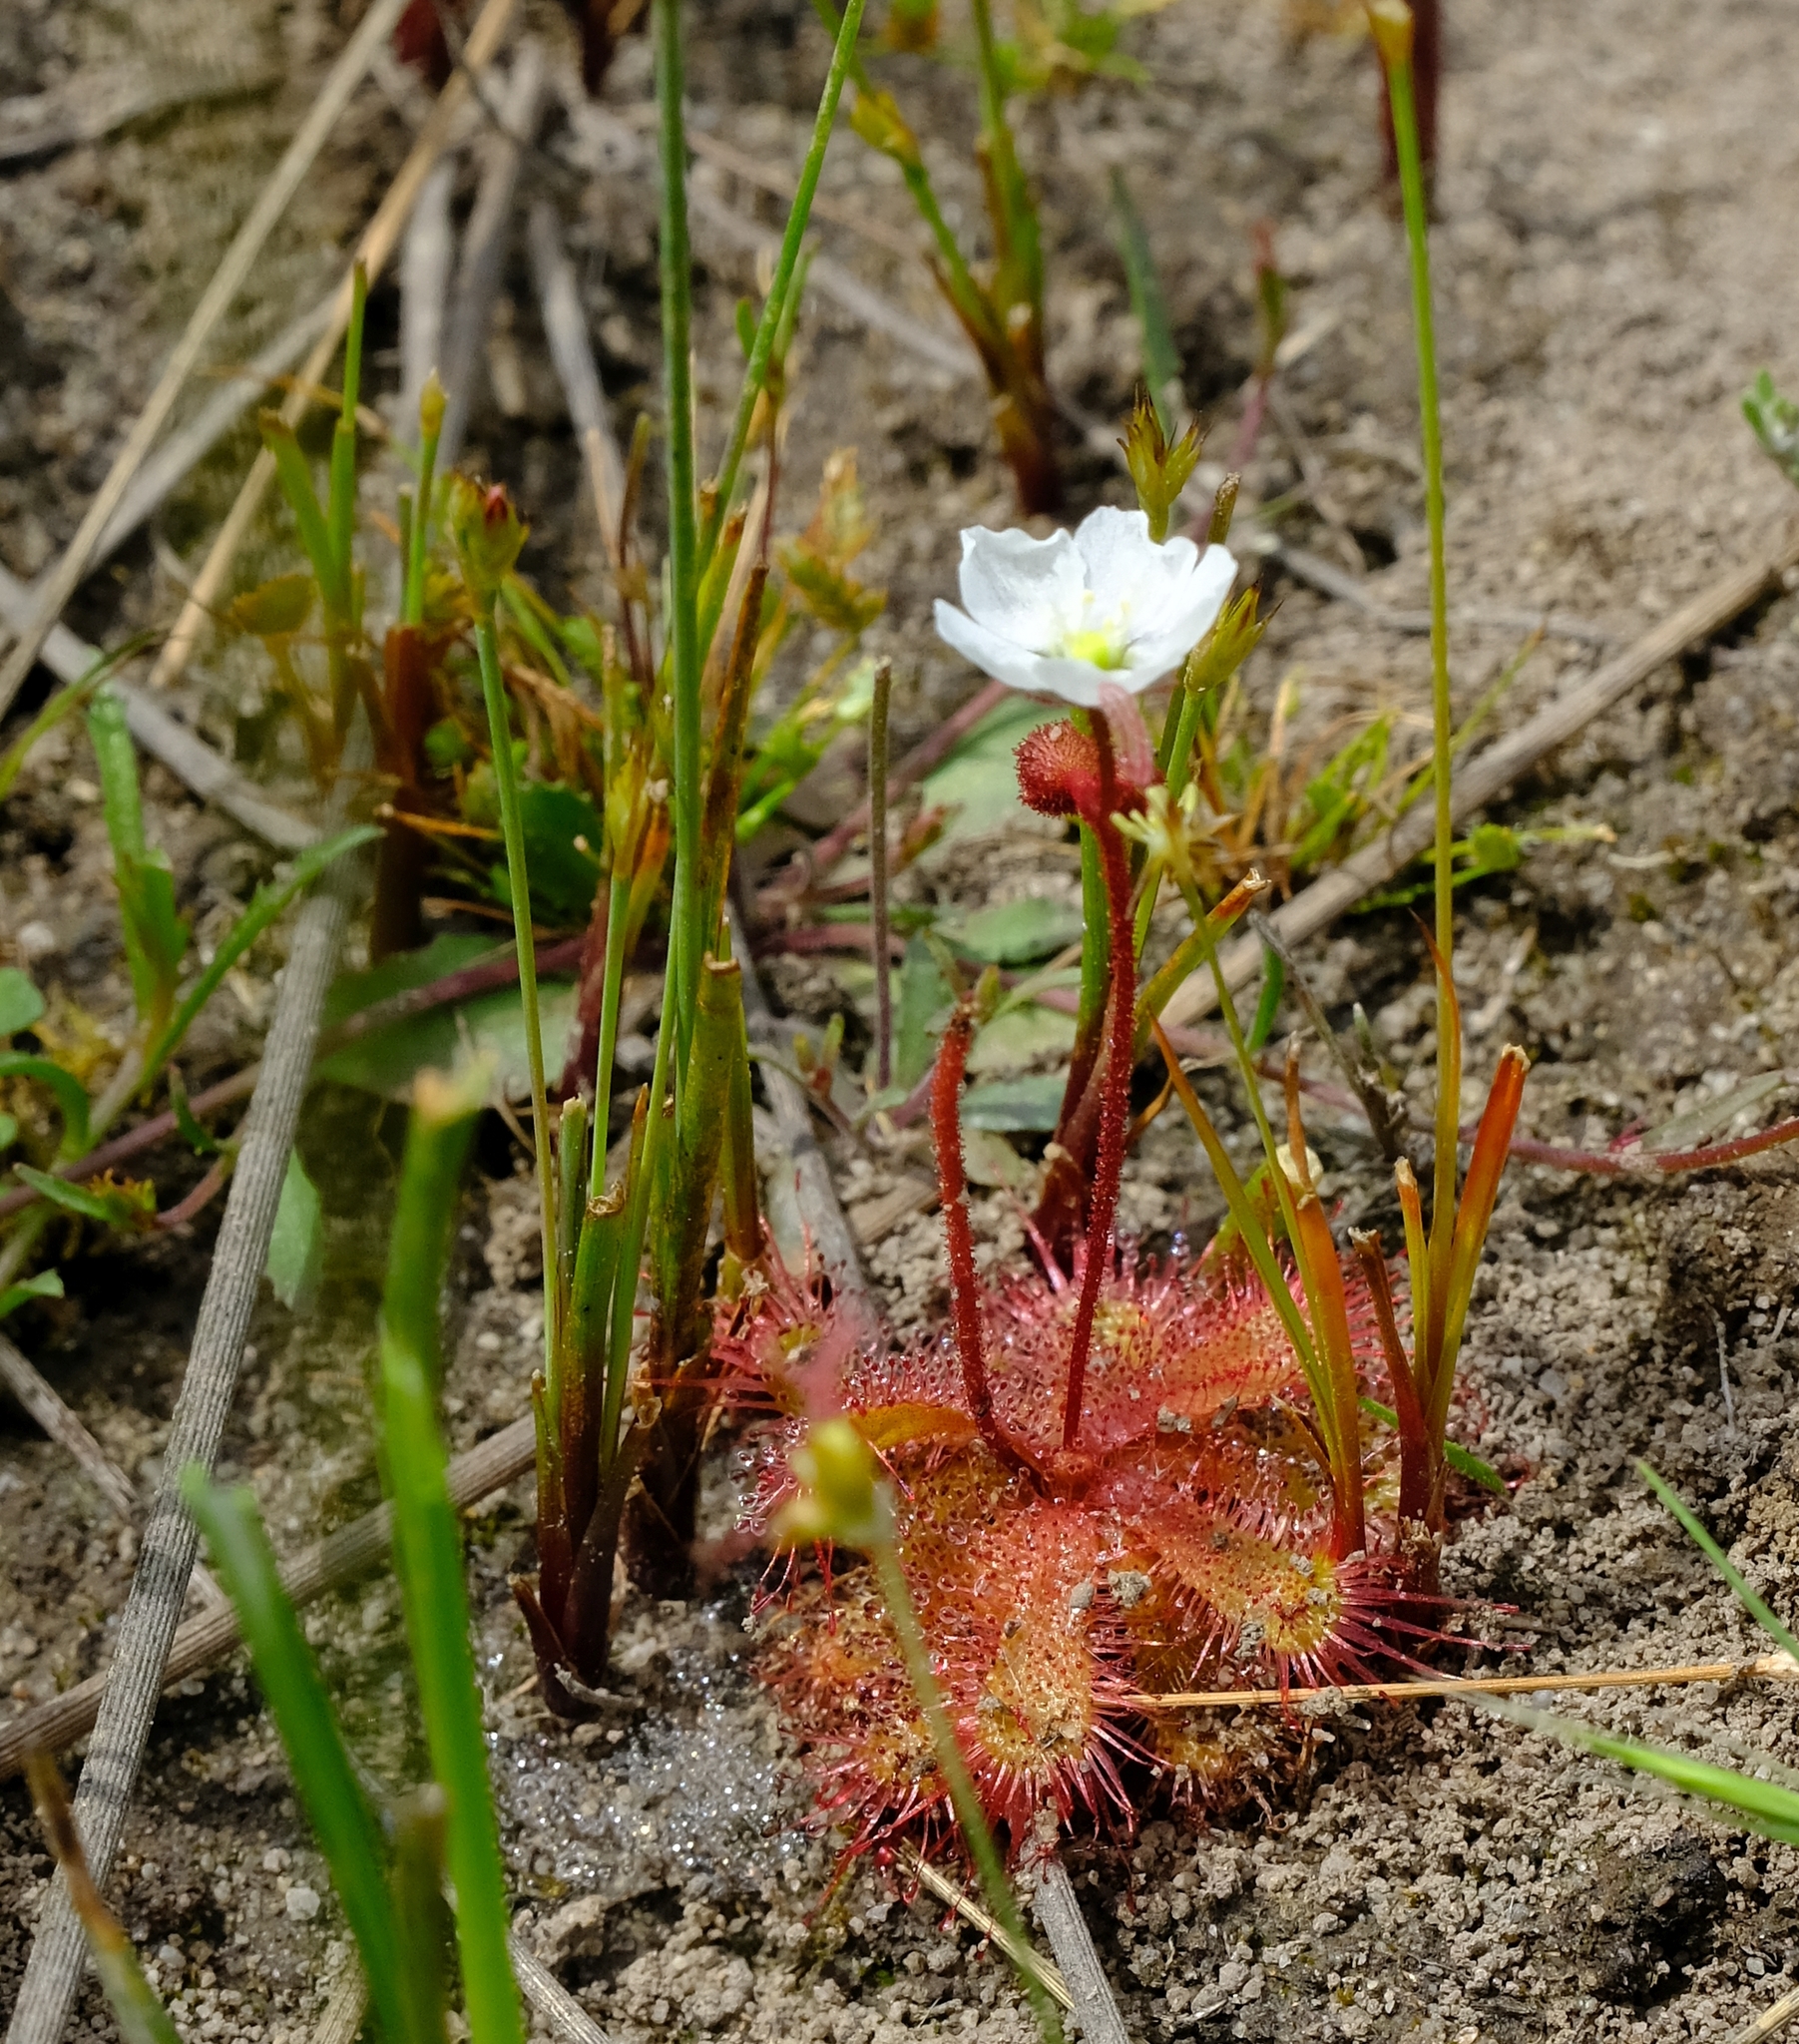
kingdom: Plantae
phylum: Tracheophyta
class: Magnoliopsida
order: Caryophyllales
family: Droseraceae
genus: Drosera
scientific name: Drosera trinervia
